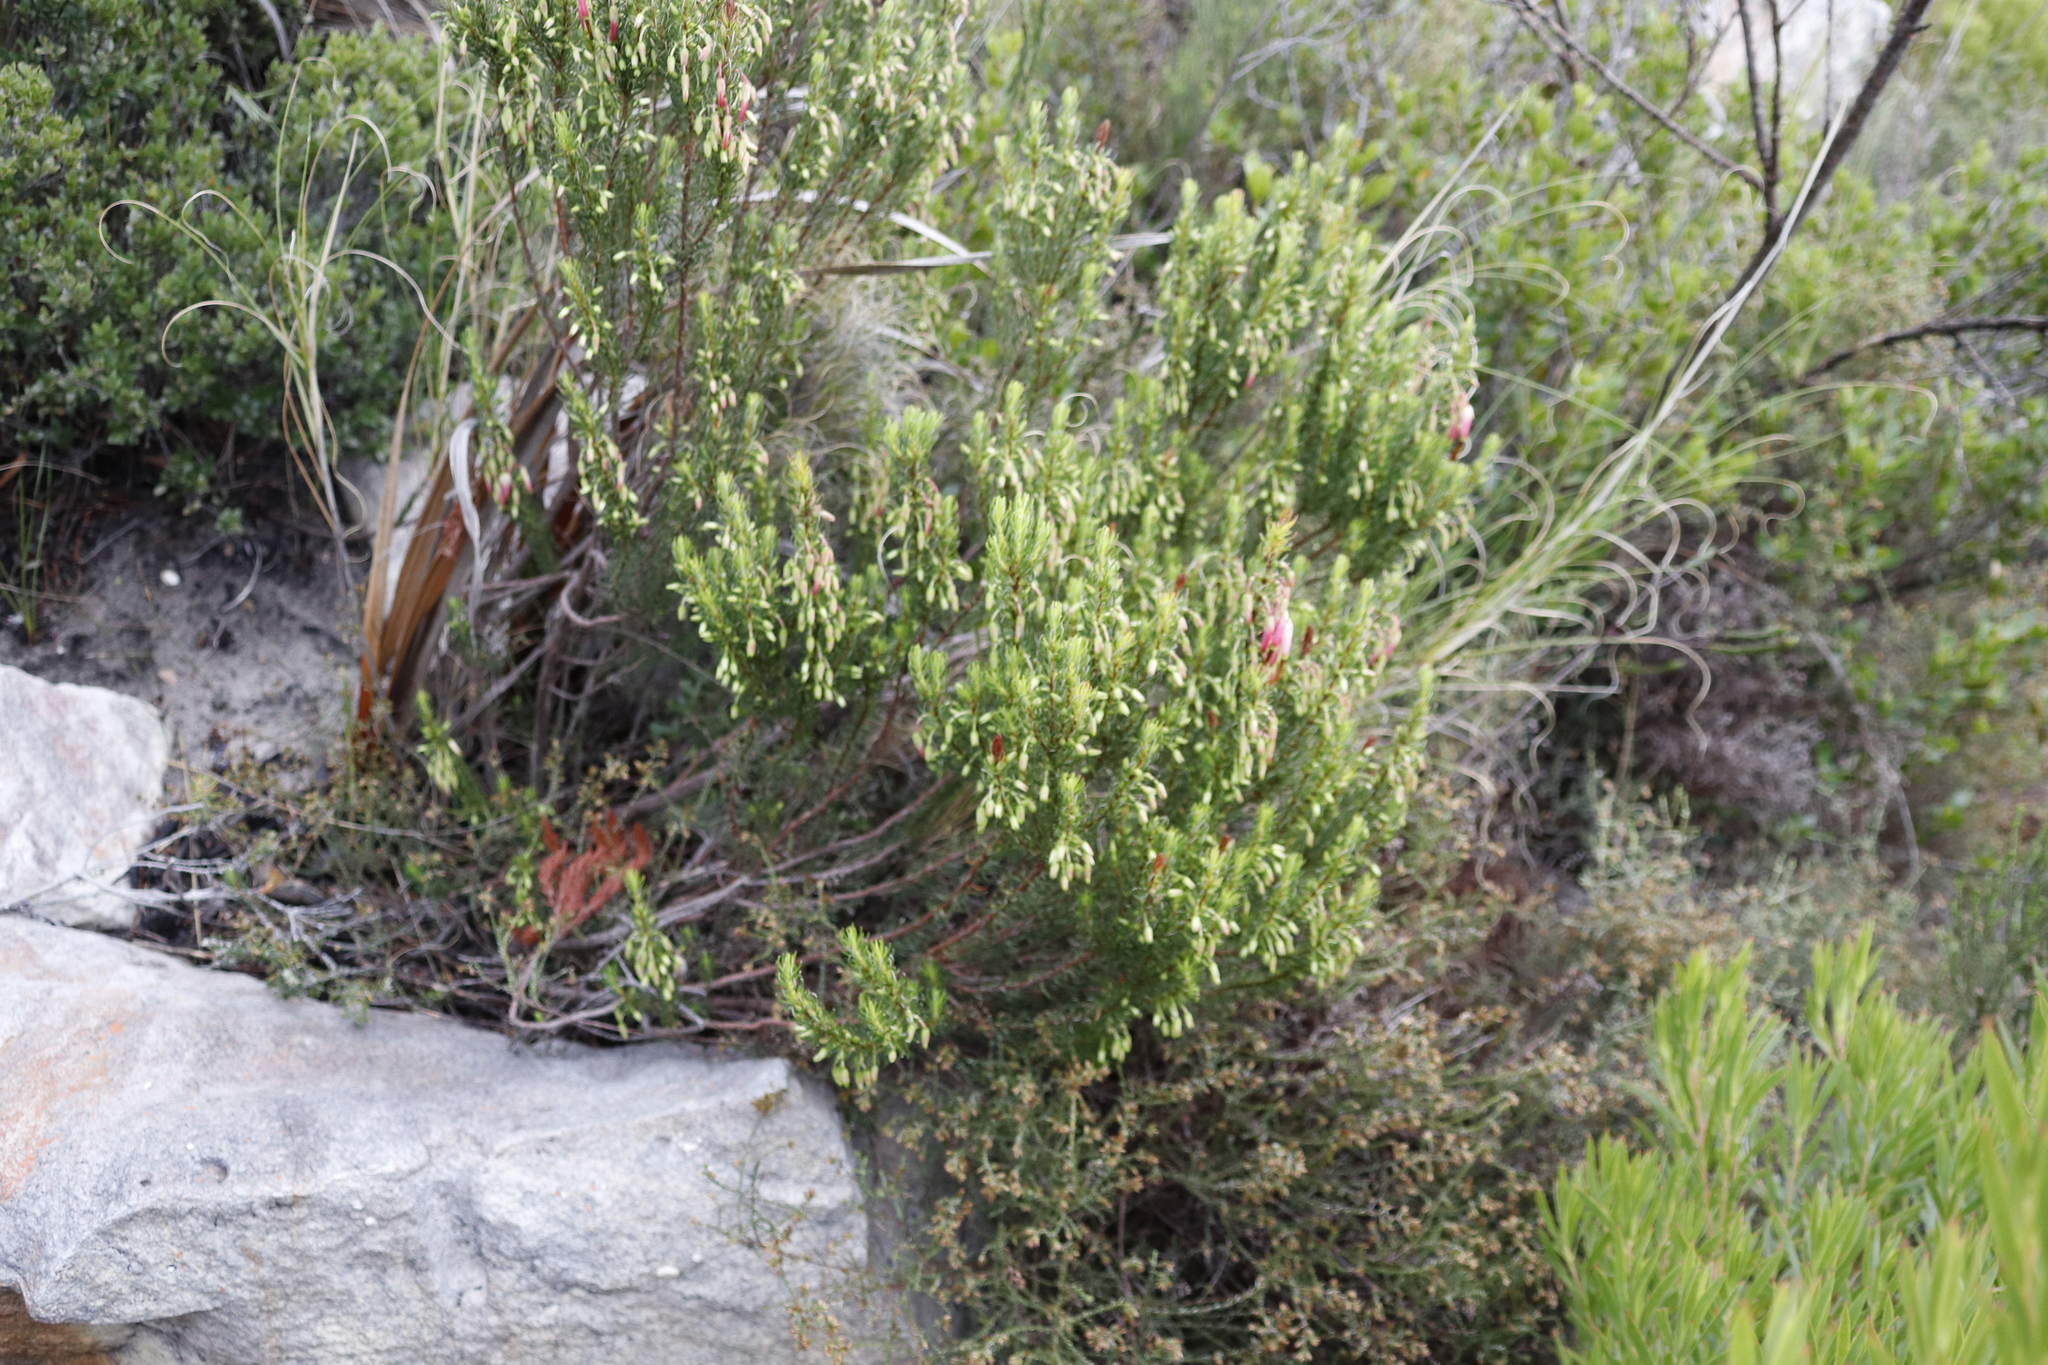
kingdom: Plantae
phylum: Tracheophyta
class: Magnoliopsida
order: Ericales
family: Ericaceae
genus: Erica
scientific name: Erica plukenetii
